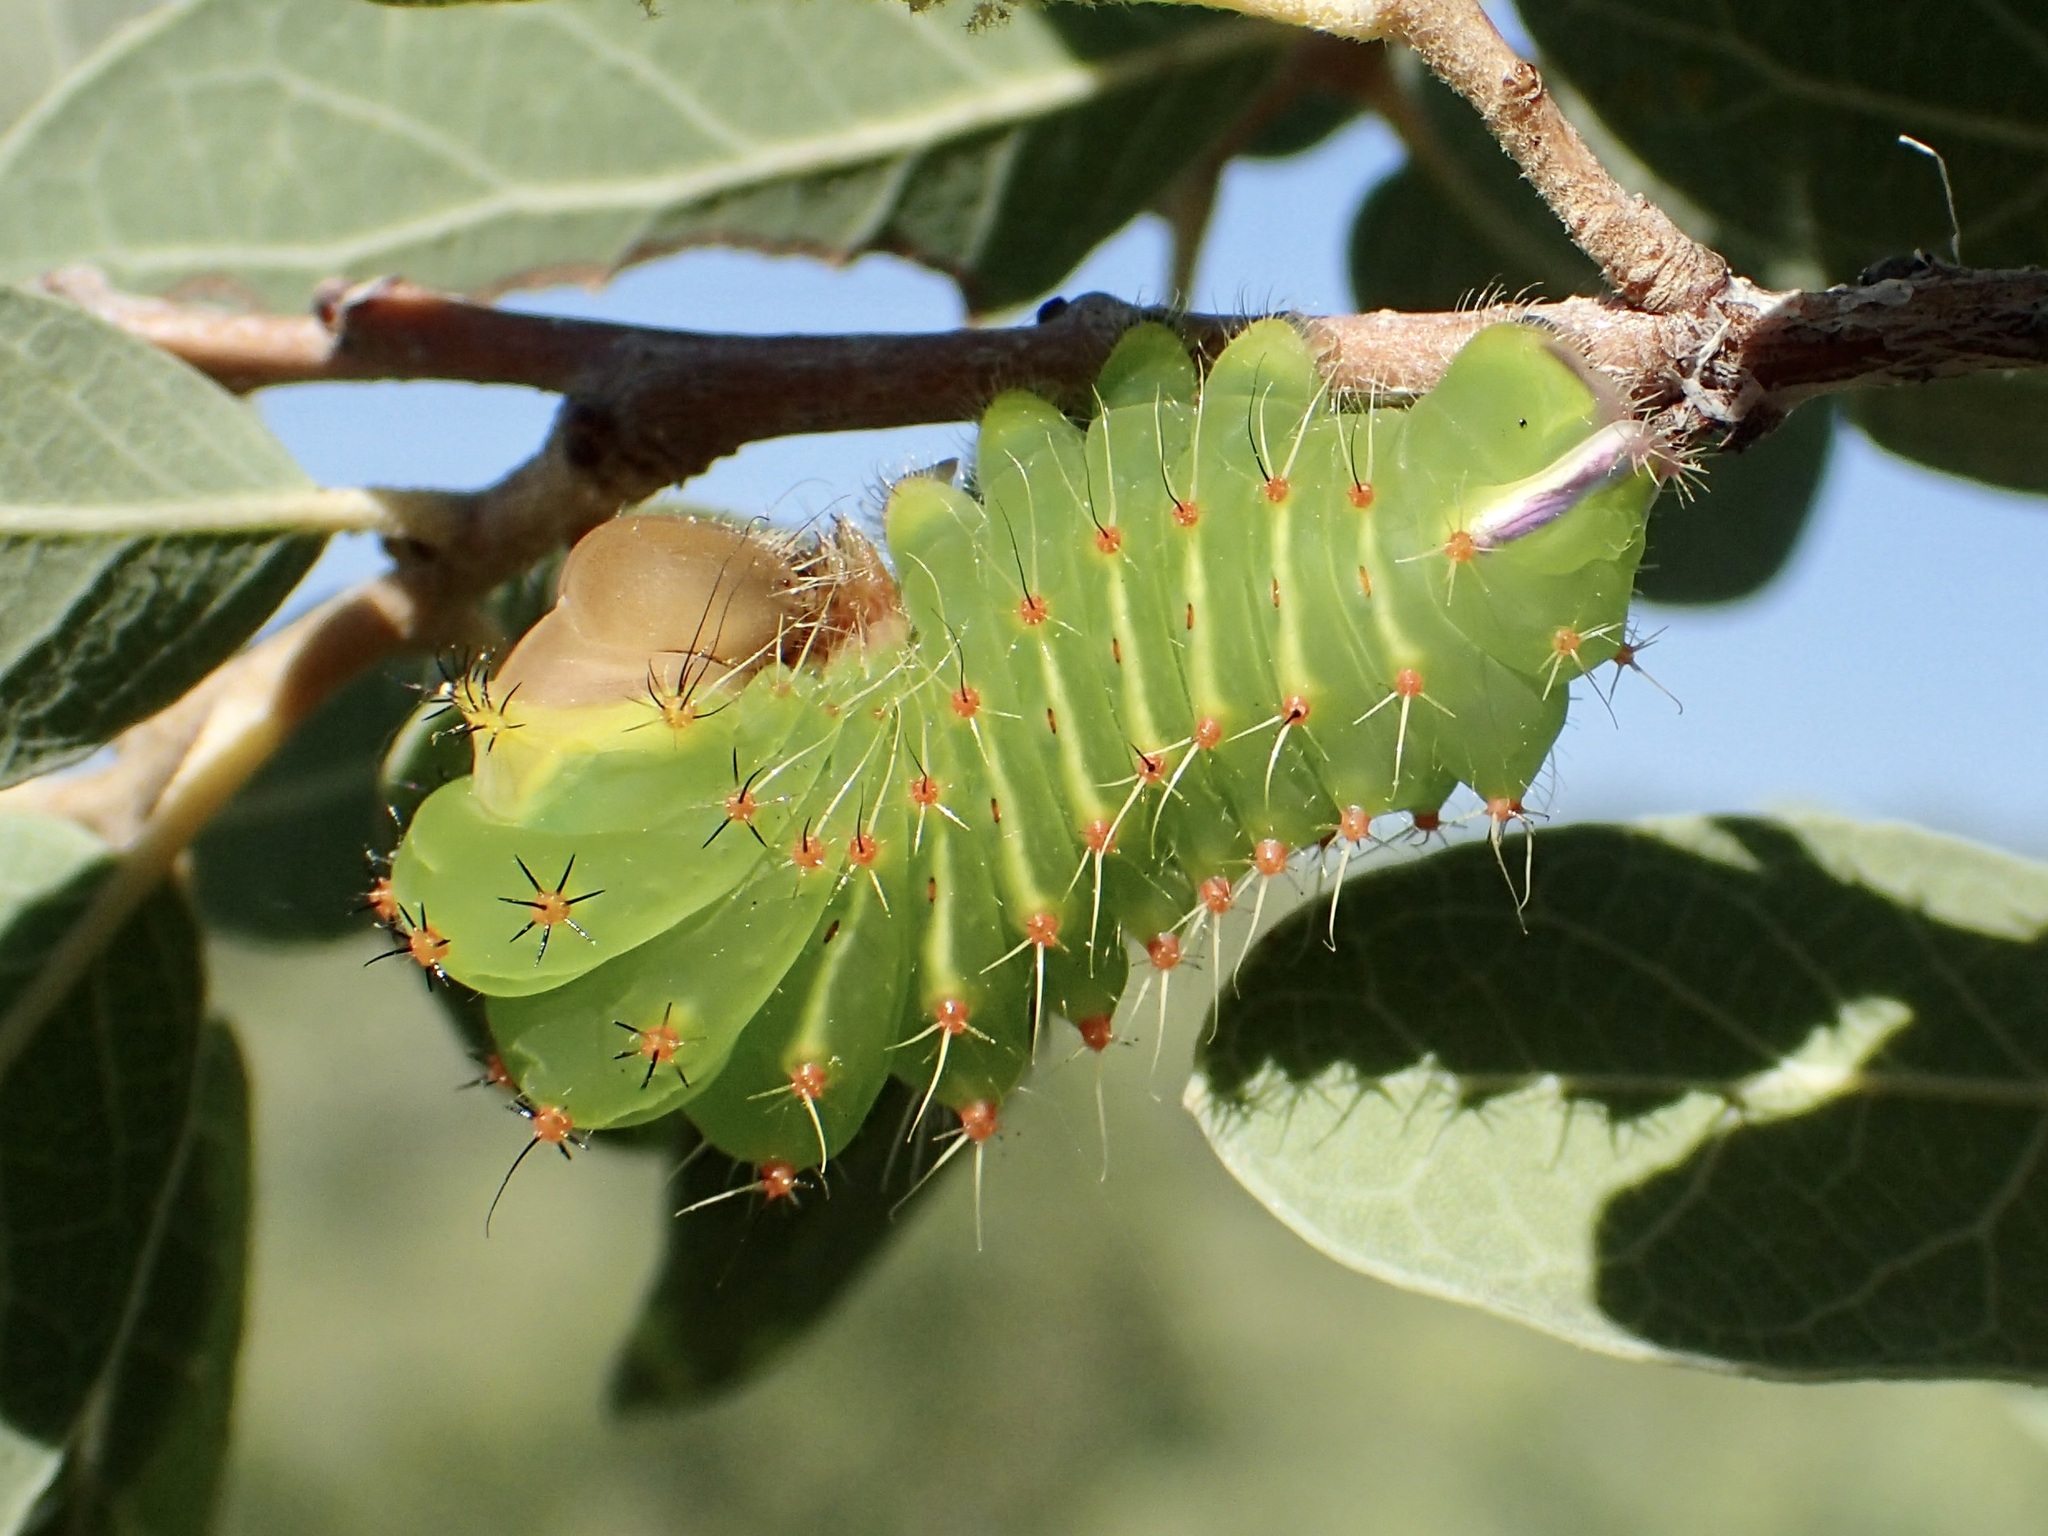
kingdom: Animalia
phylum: Arthropoda
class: Insecta
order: Lepidoptera
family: Saturniidae
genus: Antheraea
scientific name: Antheraea oculea
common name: Arizona polyphemus moth
